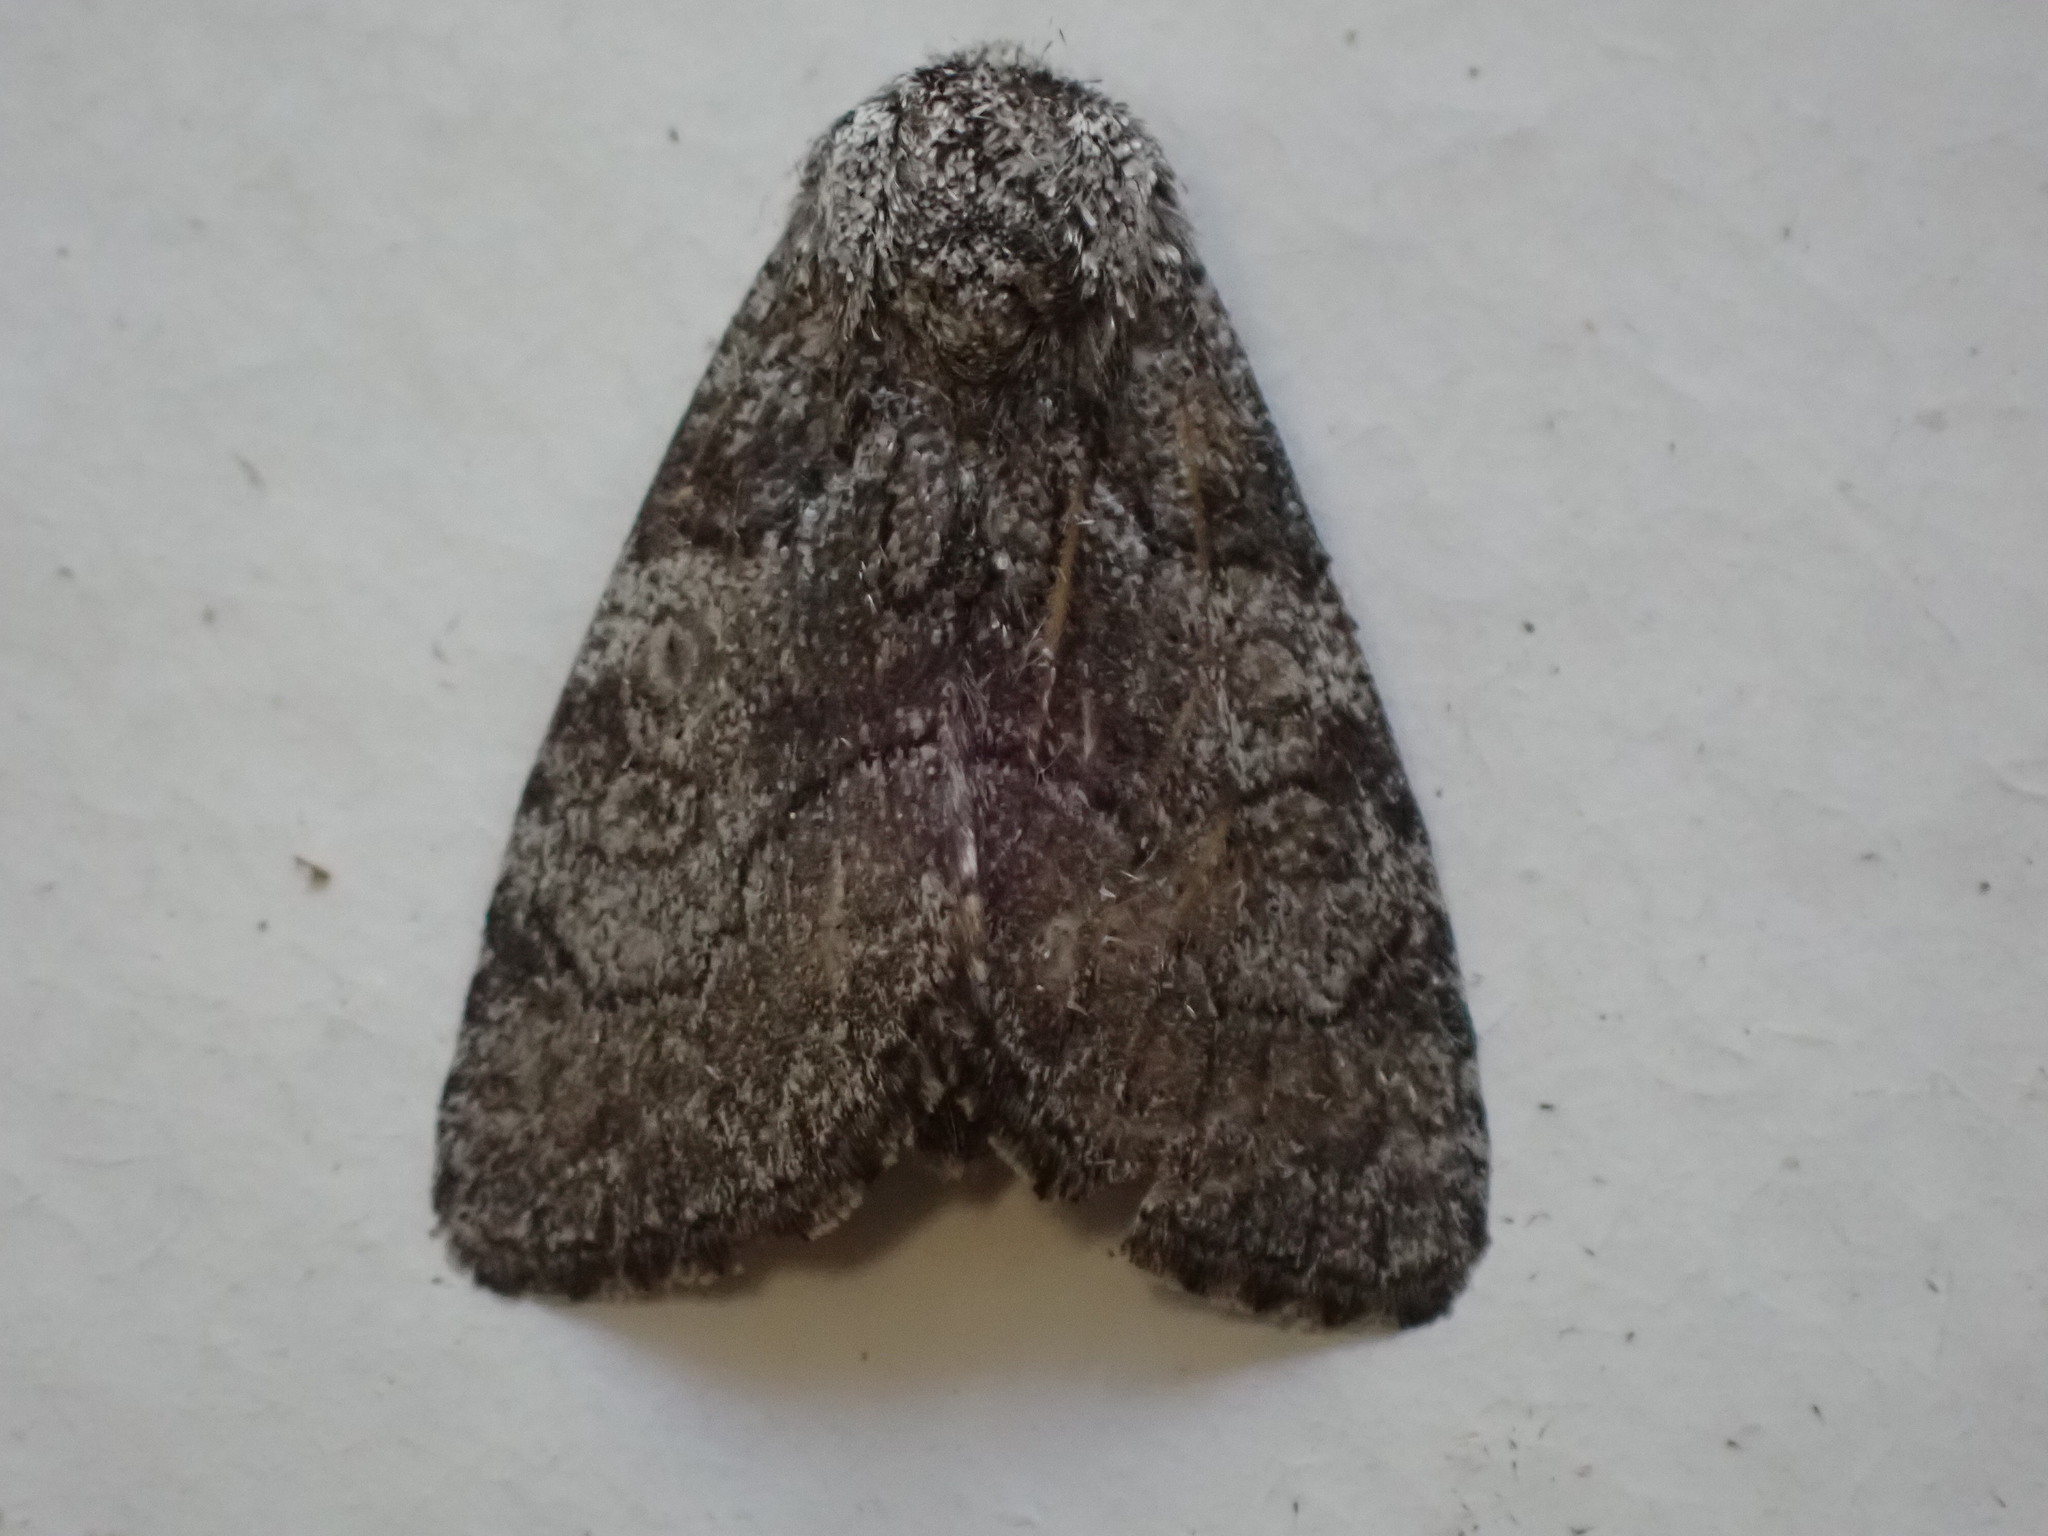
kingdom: Animalia
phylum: Arthropoda
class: Insecta
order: Lepidoptera
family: Noctuidae
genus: Raphia
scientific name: Raphia frater
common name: Brother
